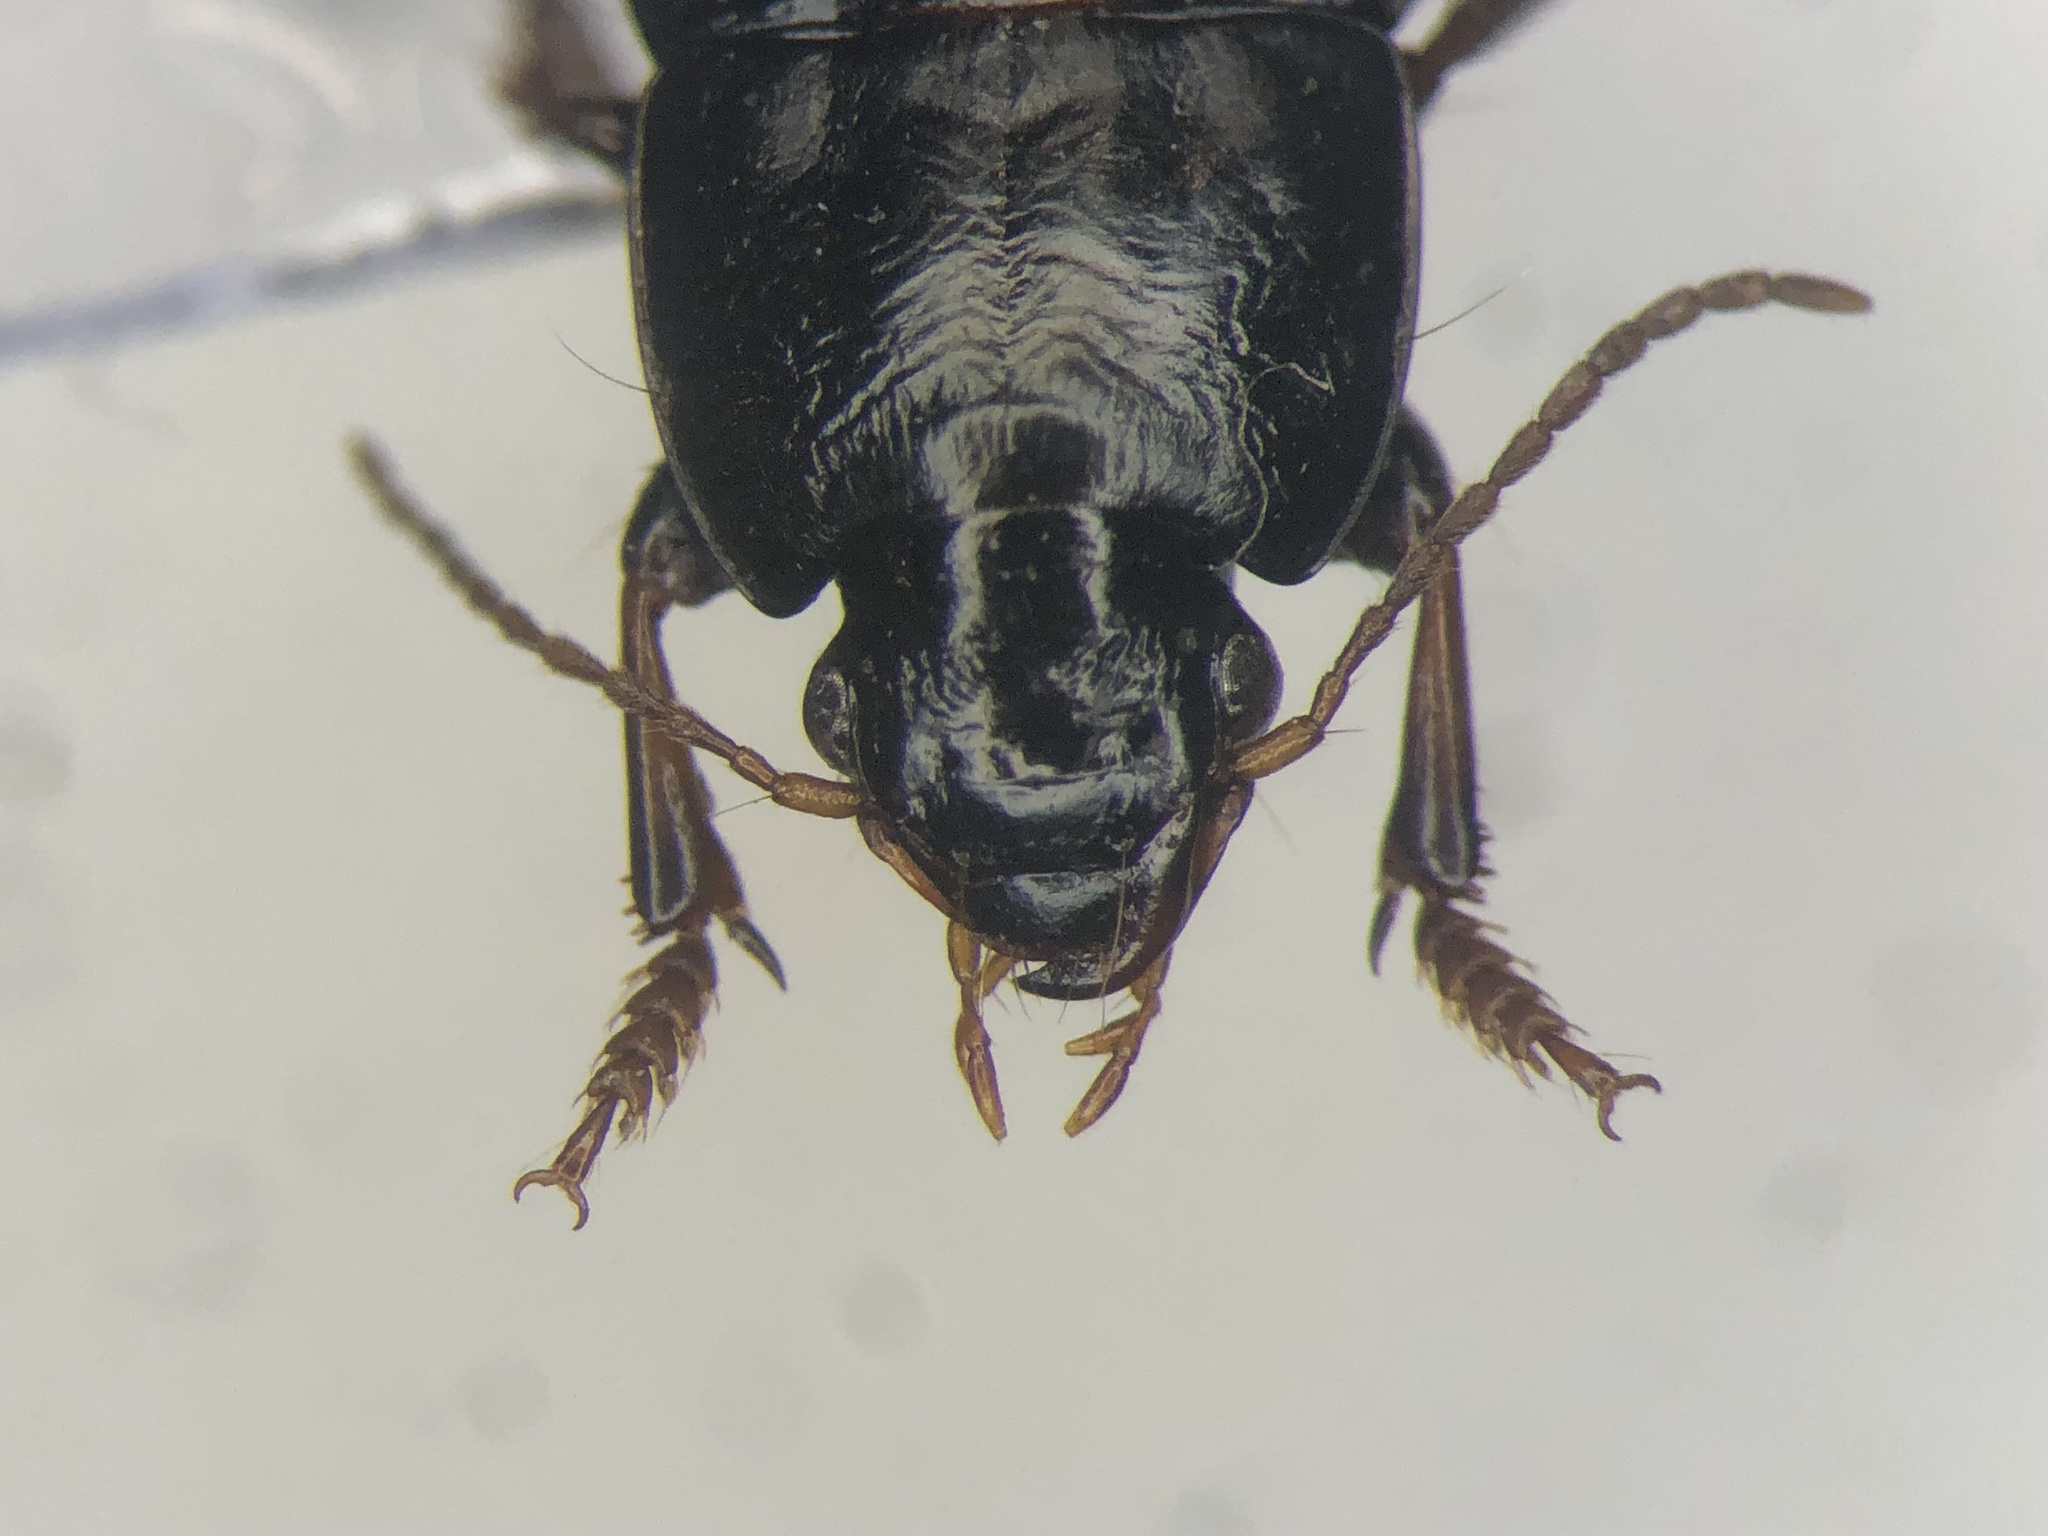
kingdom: Animalia
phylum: Arthropoda
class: Insecta
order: Coleoptera
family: Carabidae
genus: Harpalus
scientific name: Harpalus opacipennis
